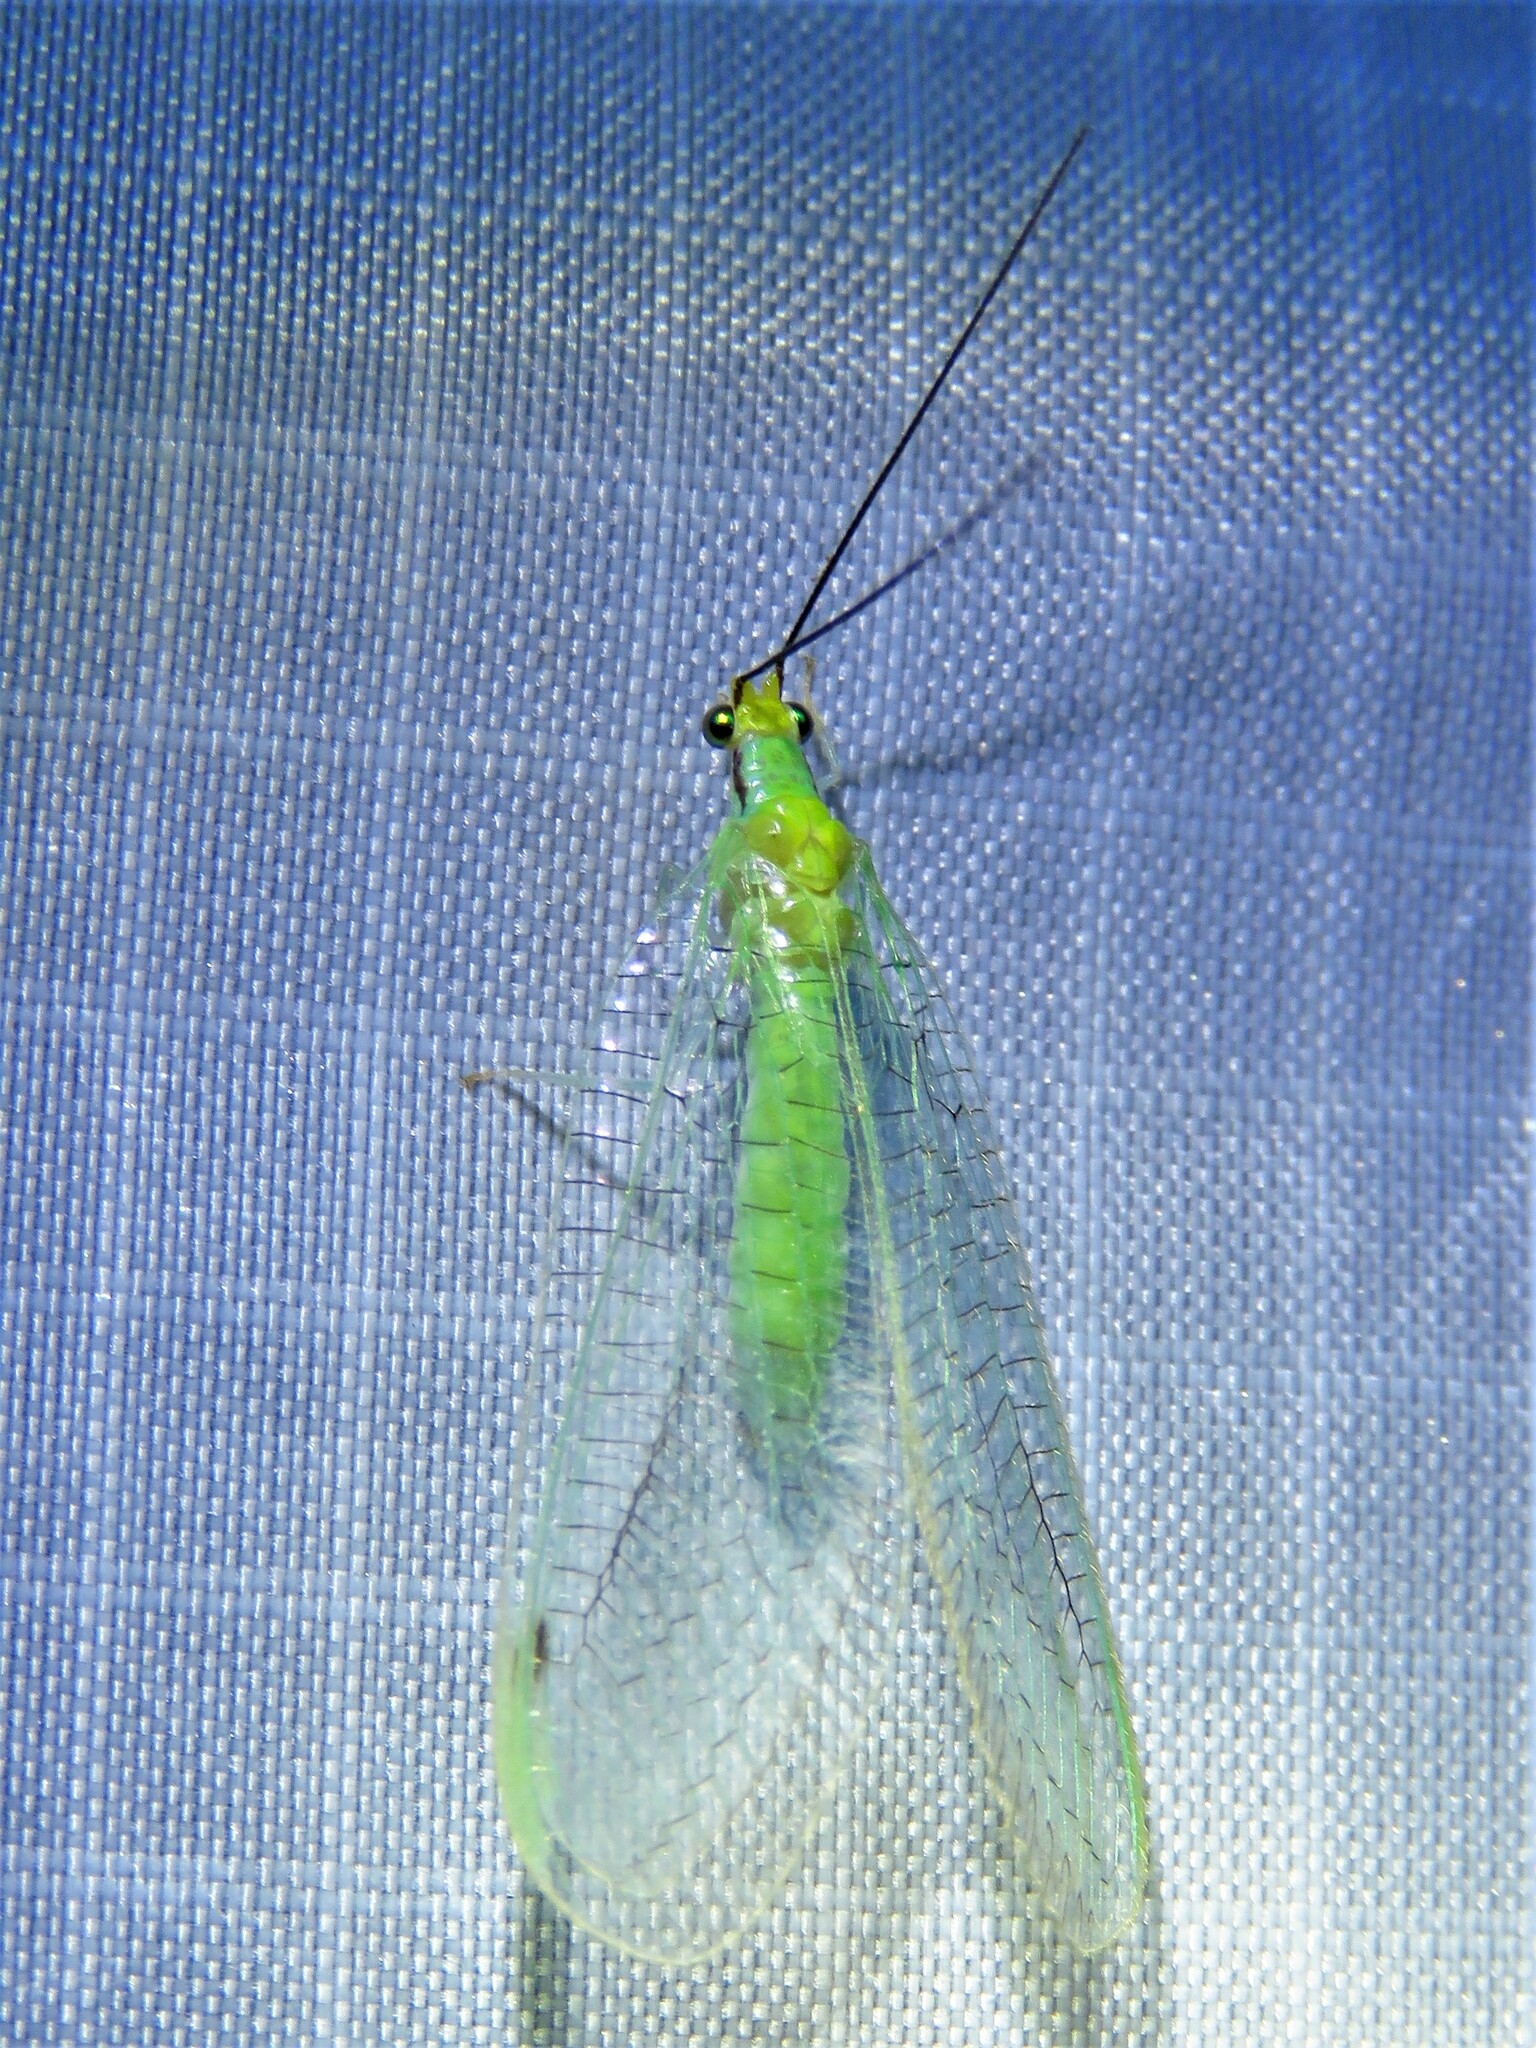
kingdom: Animalia
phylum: Arthropoda
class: Insecta
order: Neuroptera
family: Chrysopidae
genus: Leucochrysa
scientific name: Leucochrysa pavida
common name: Lichen-carrying green lacewing
